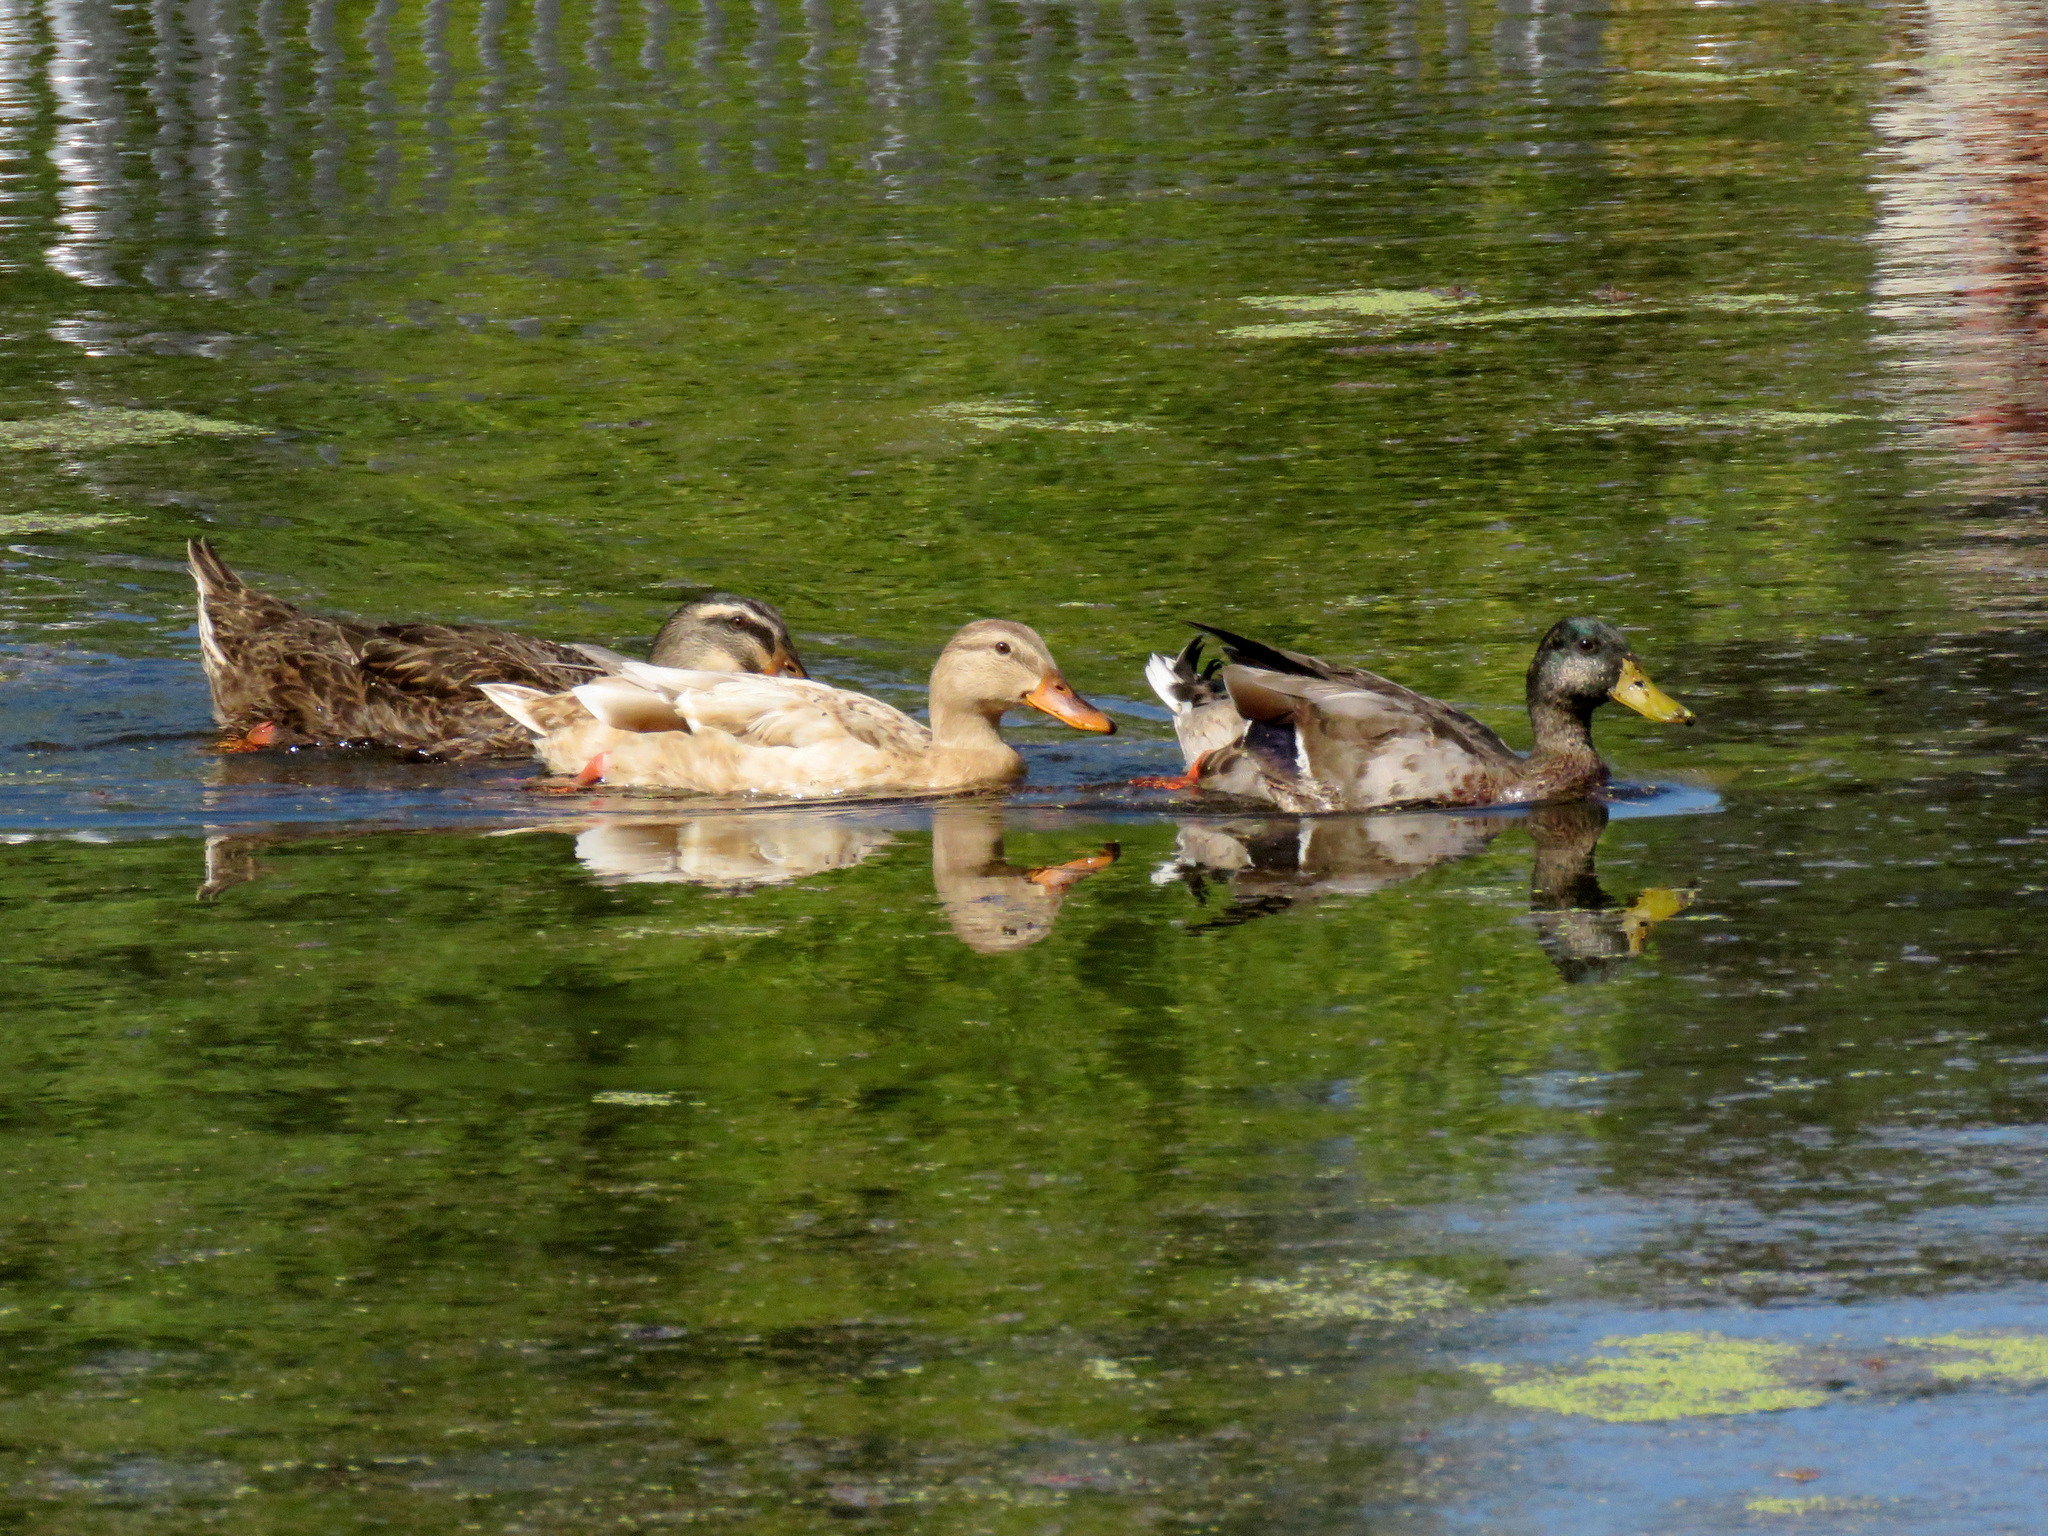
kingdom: Animalia
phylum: Chordata
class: Aves
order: Anseriformes
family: Anatidae
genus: Anas
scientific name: Anas platyrhynchos
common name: Mallard
